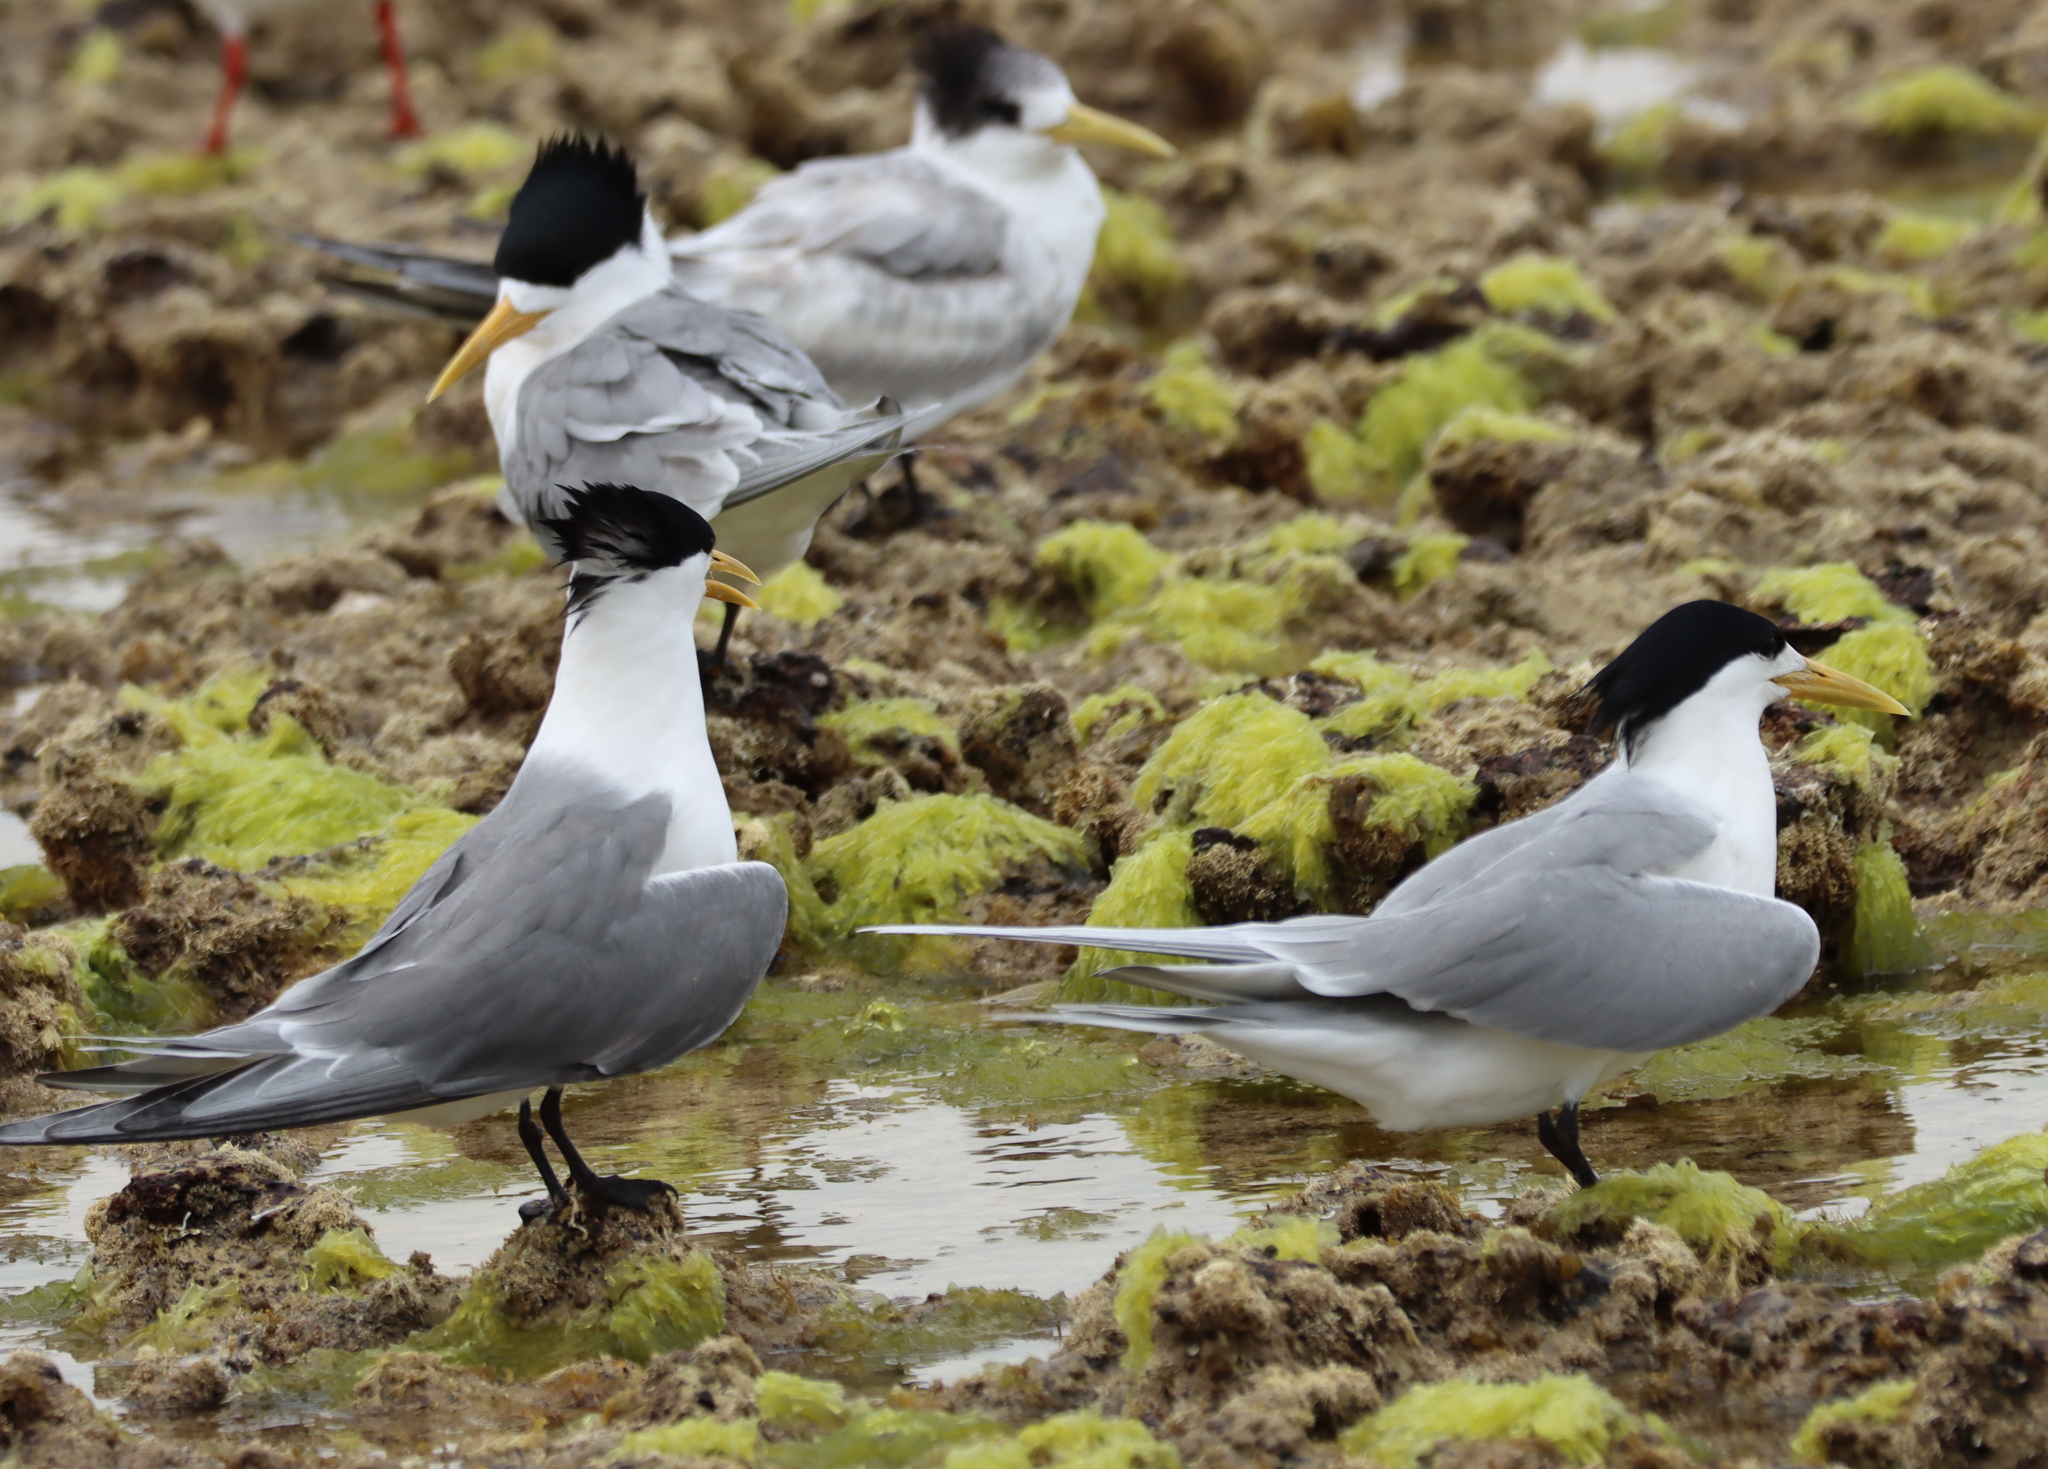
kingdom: Animalia
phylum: Chordata
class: Aves
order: Charadriiformes
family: Laridae
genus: Thalasseus
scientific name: Thalasseus bergii
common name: Greater crested tern
